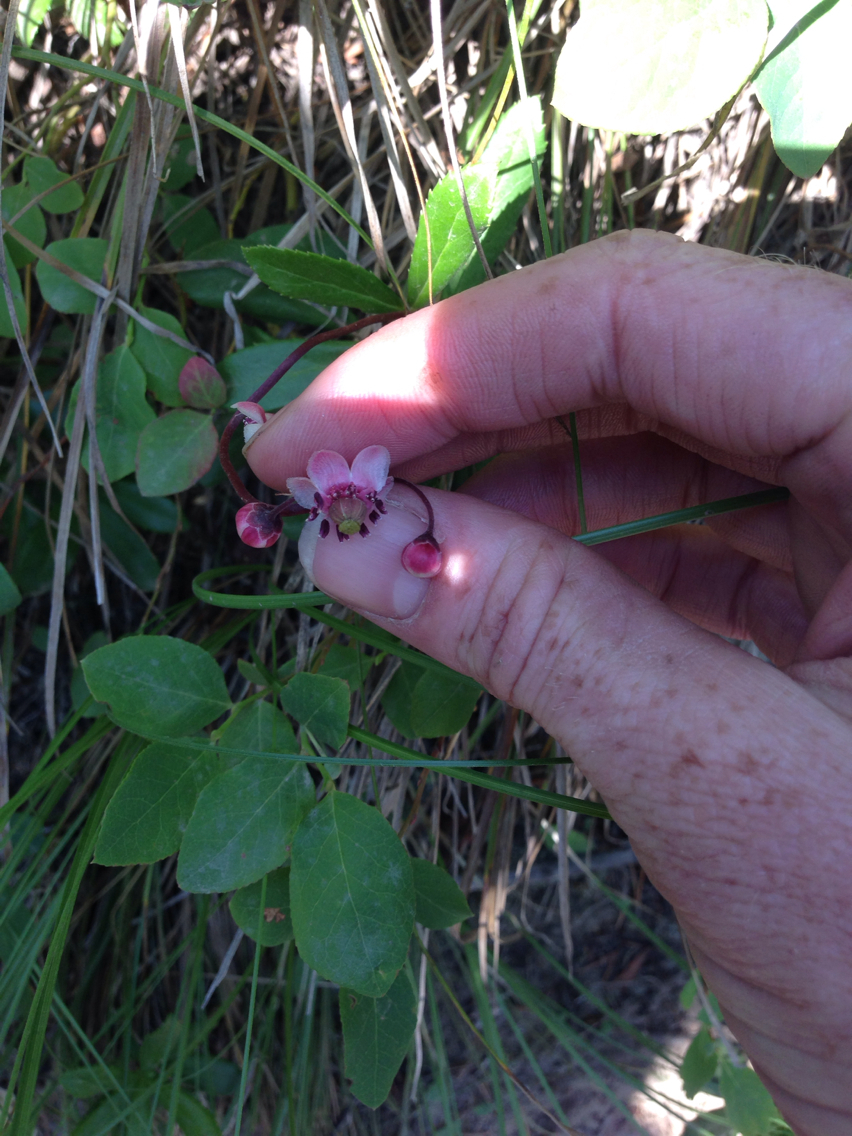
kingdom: Plantae
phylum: Tracheophyta
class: Magnoliopsida
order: Ericales
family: Ericaceae
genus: Chimaphila
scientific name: Chimaphila umbellata
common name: Pipsissewa
